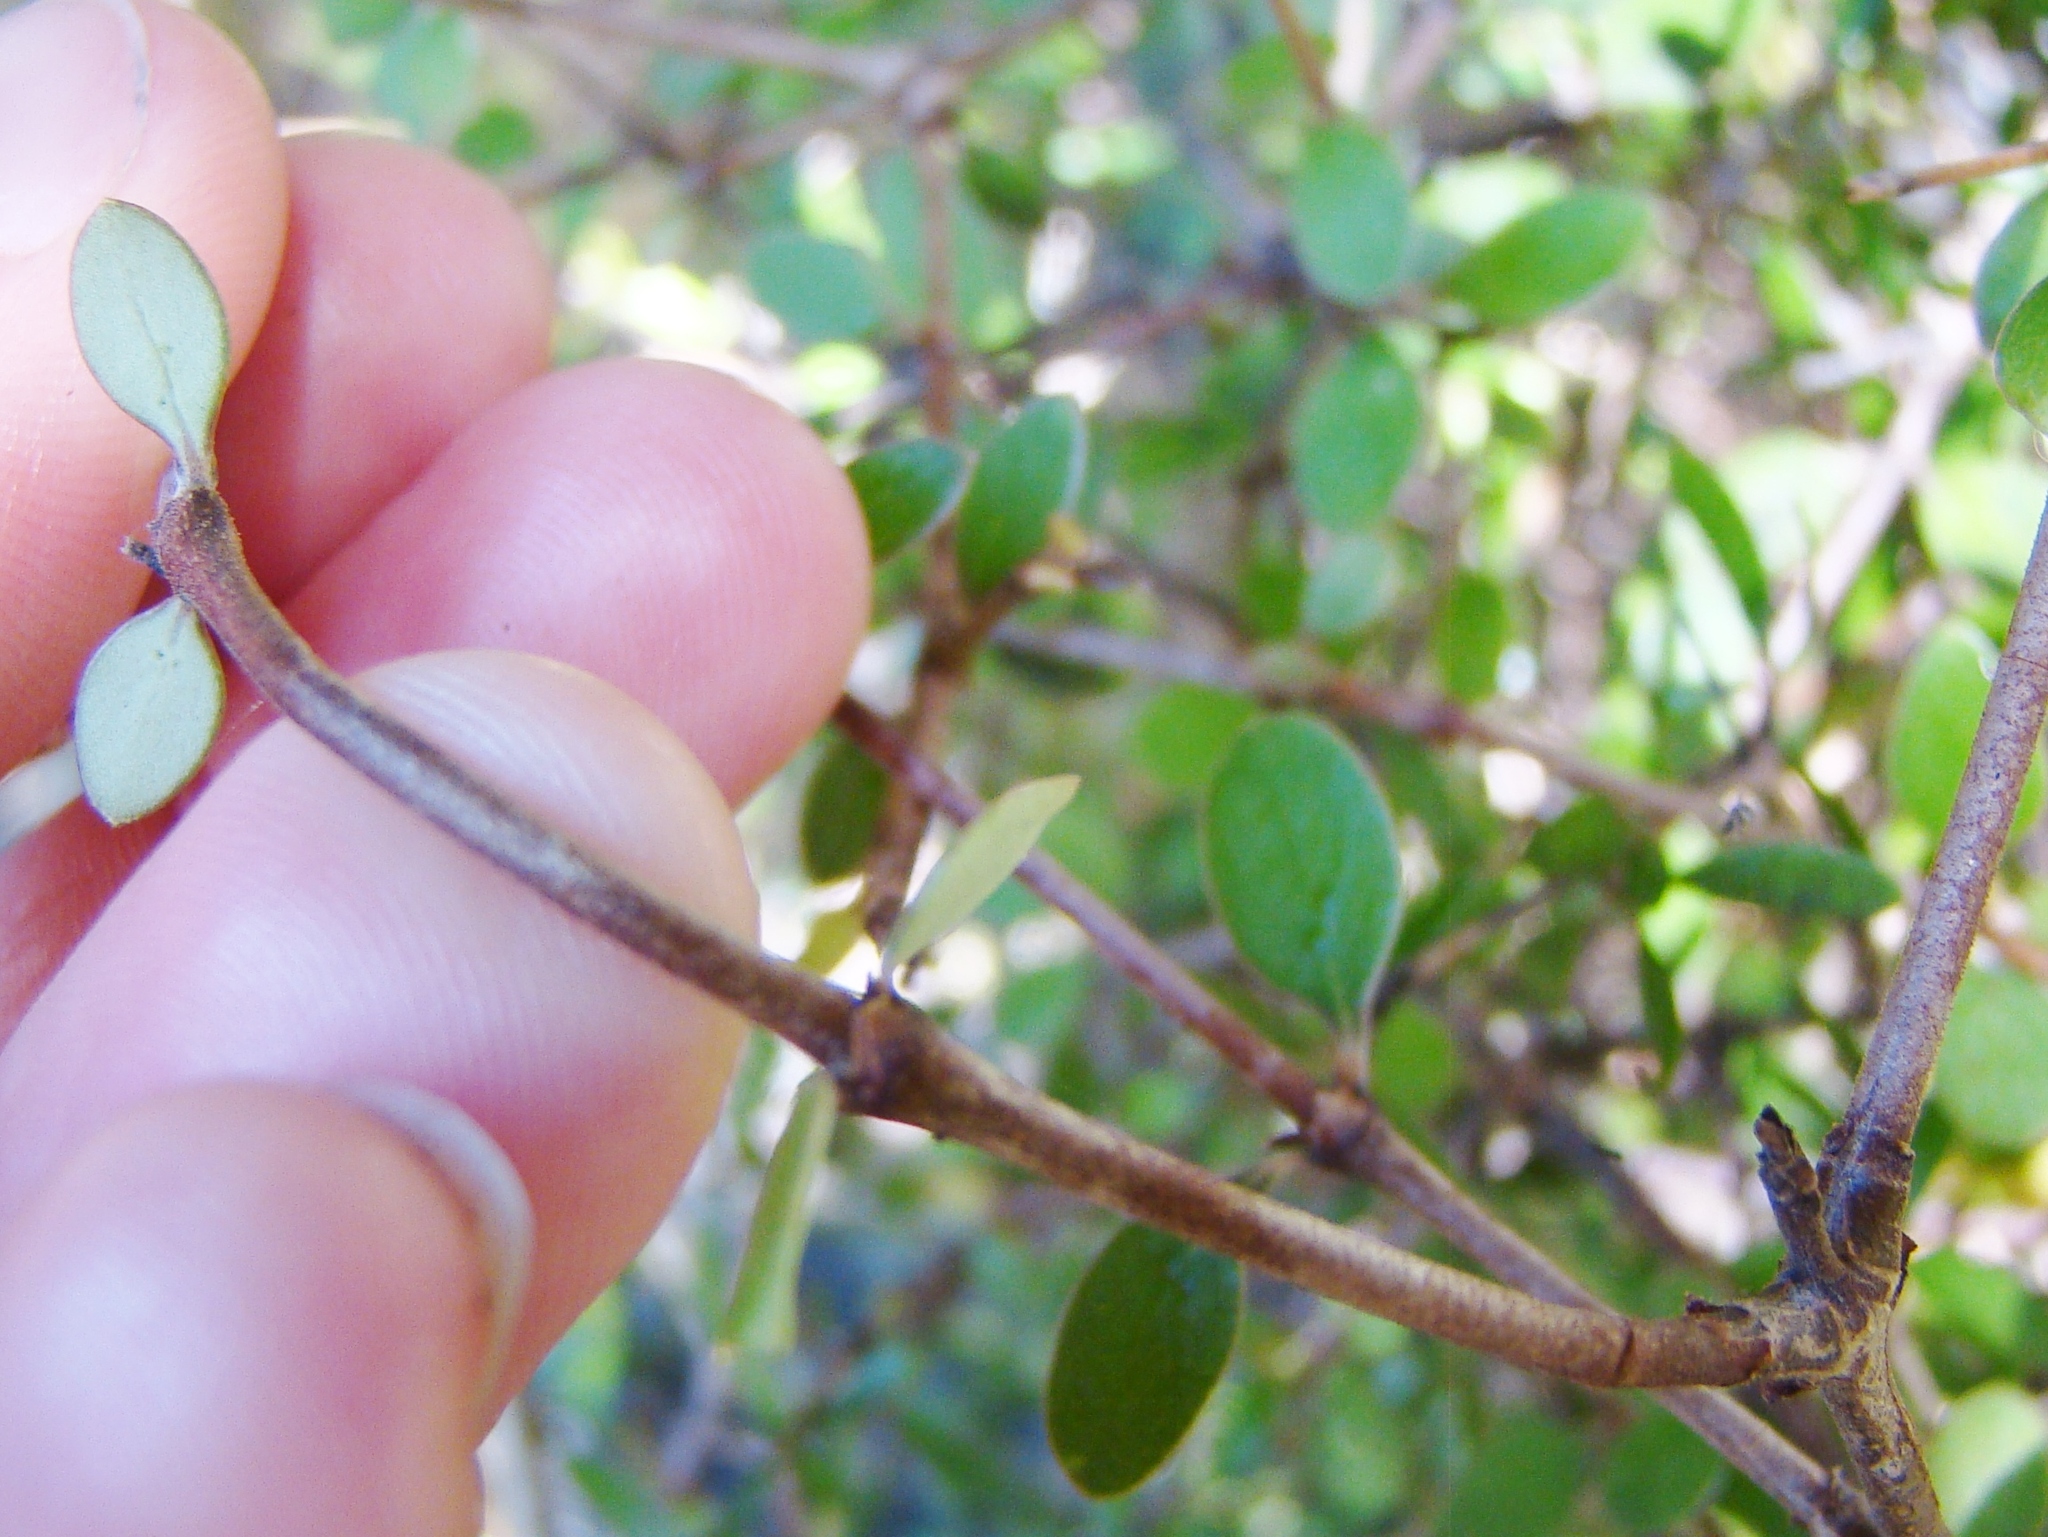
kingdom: Plantae
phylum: Tracheophyta
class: Magnoliopsida
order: Gentianales
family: Rubiaceae
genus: Coprosma
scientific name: Coprosma propinqua
